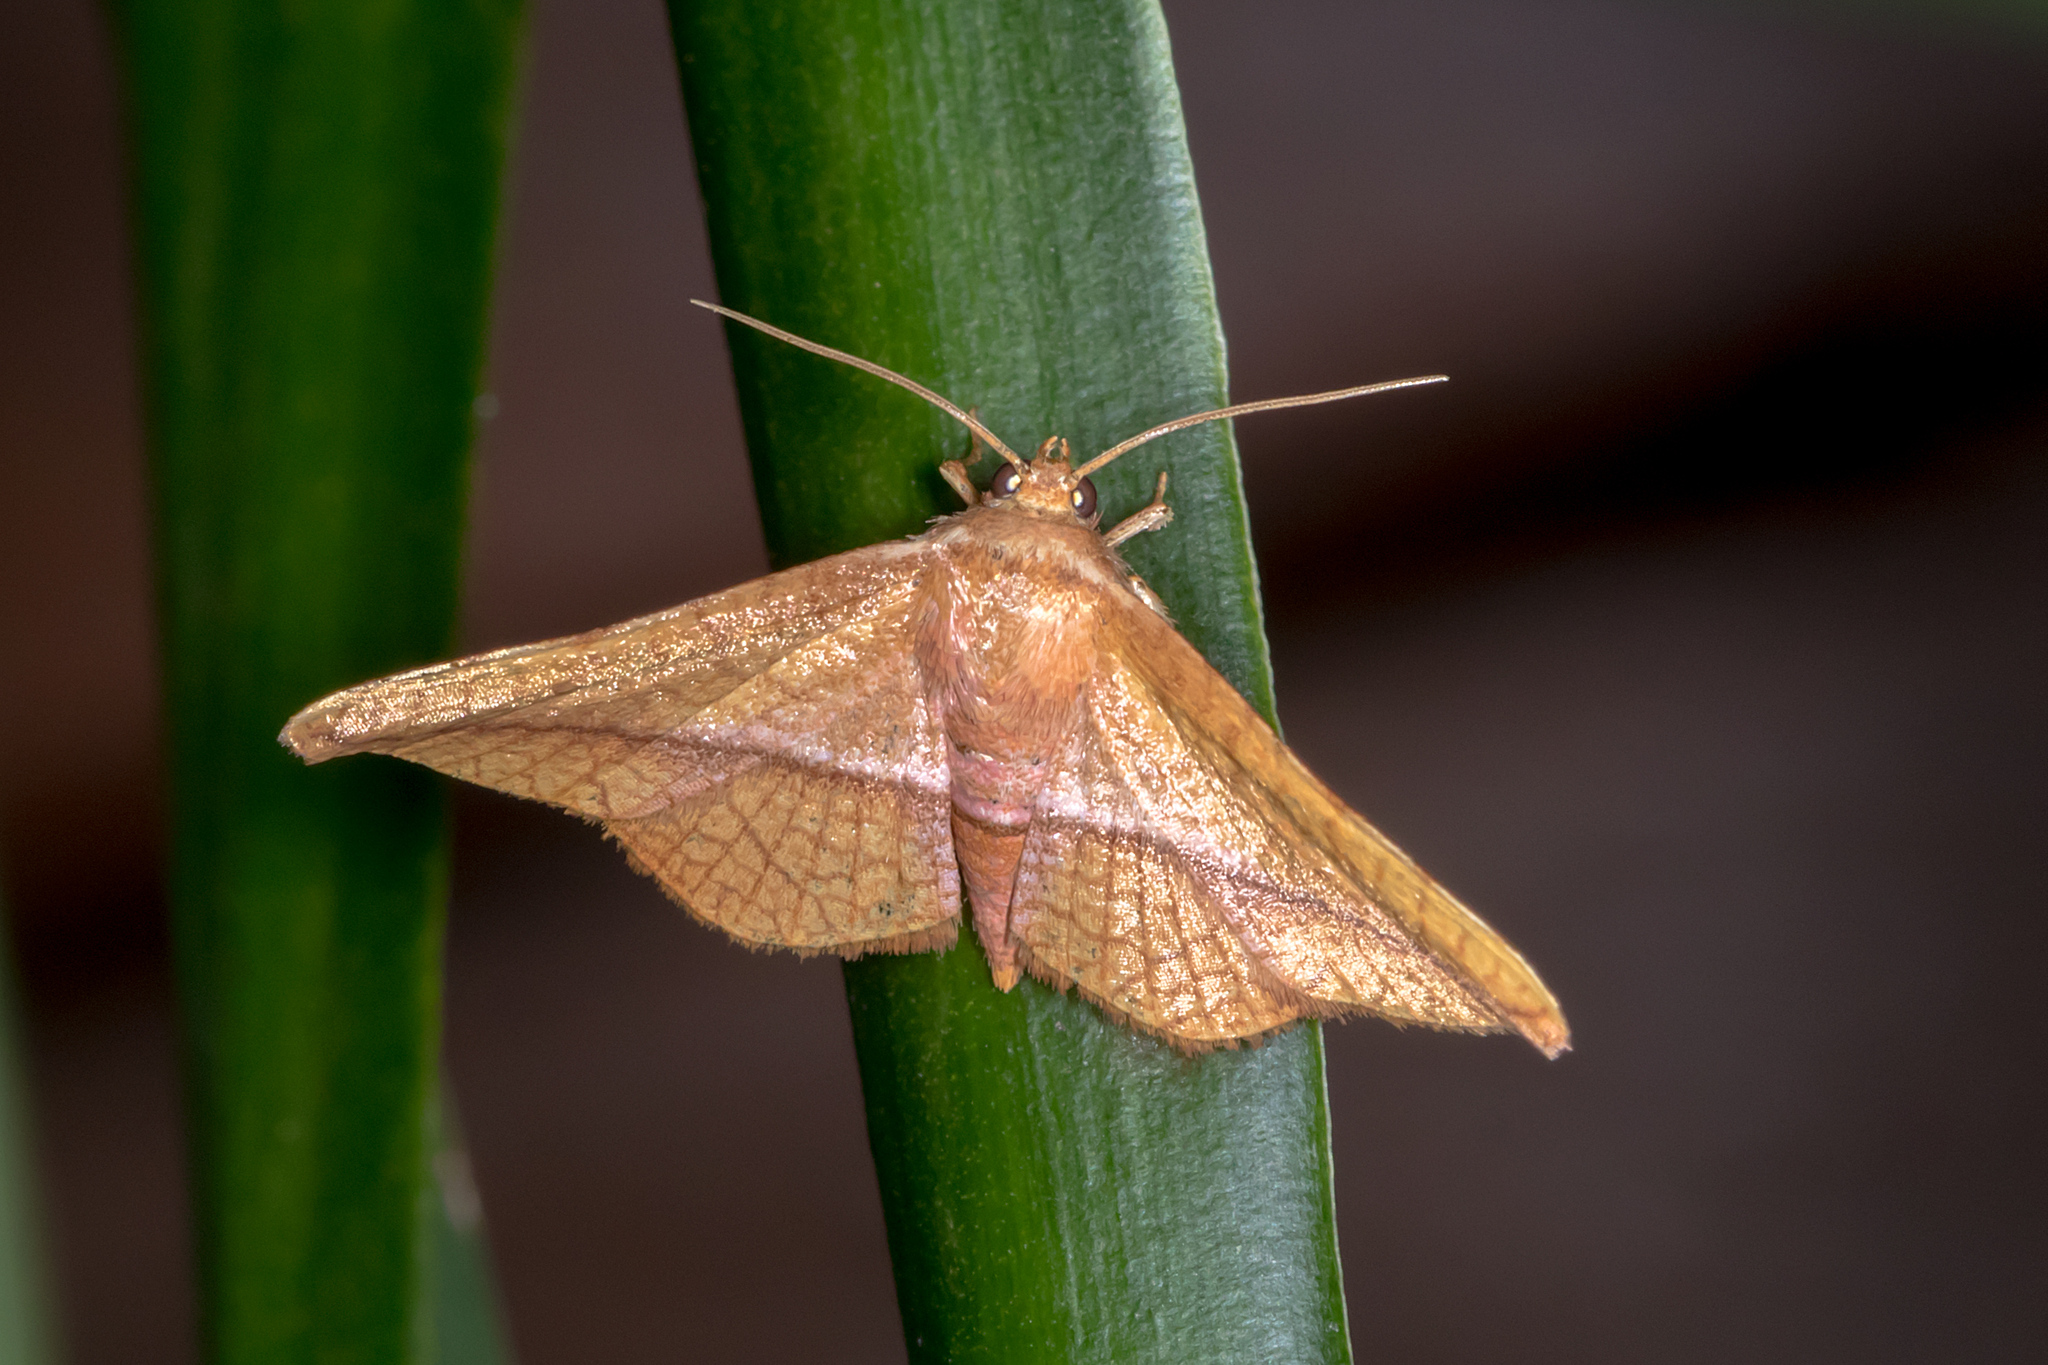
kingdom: Animalia
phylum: Arthropoda
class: Insecta
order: Lepidoptera
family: Thyrididae
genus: Aglaopus
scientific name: Aglaopus loxomita
